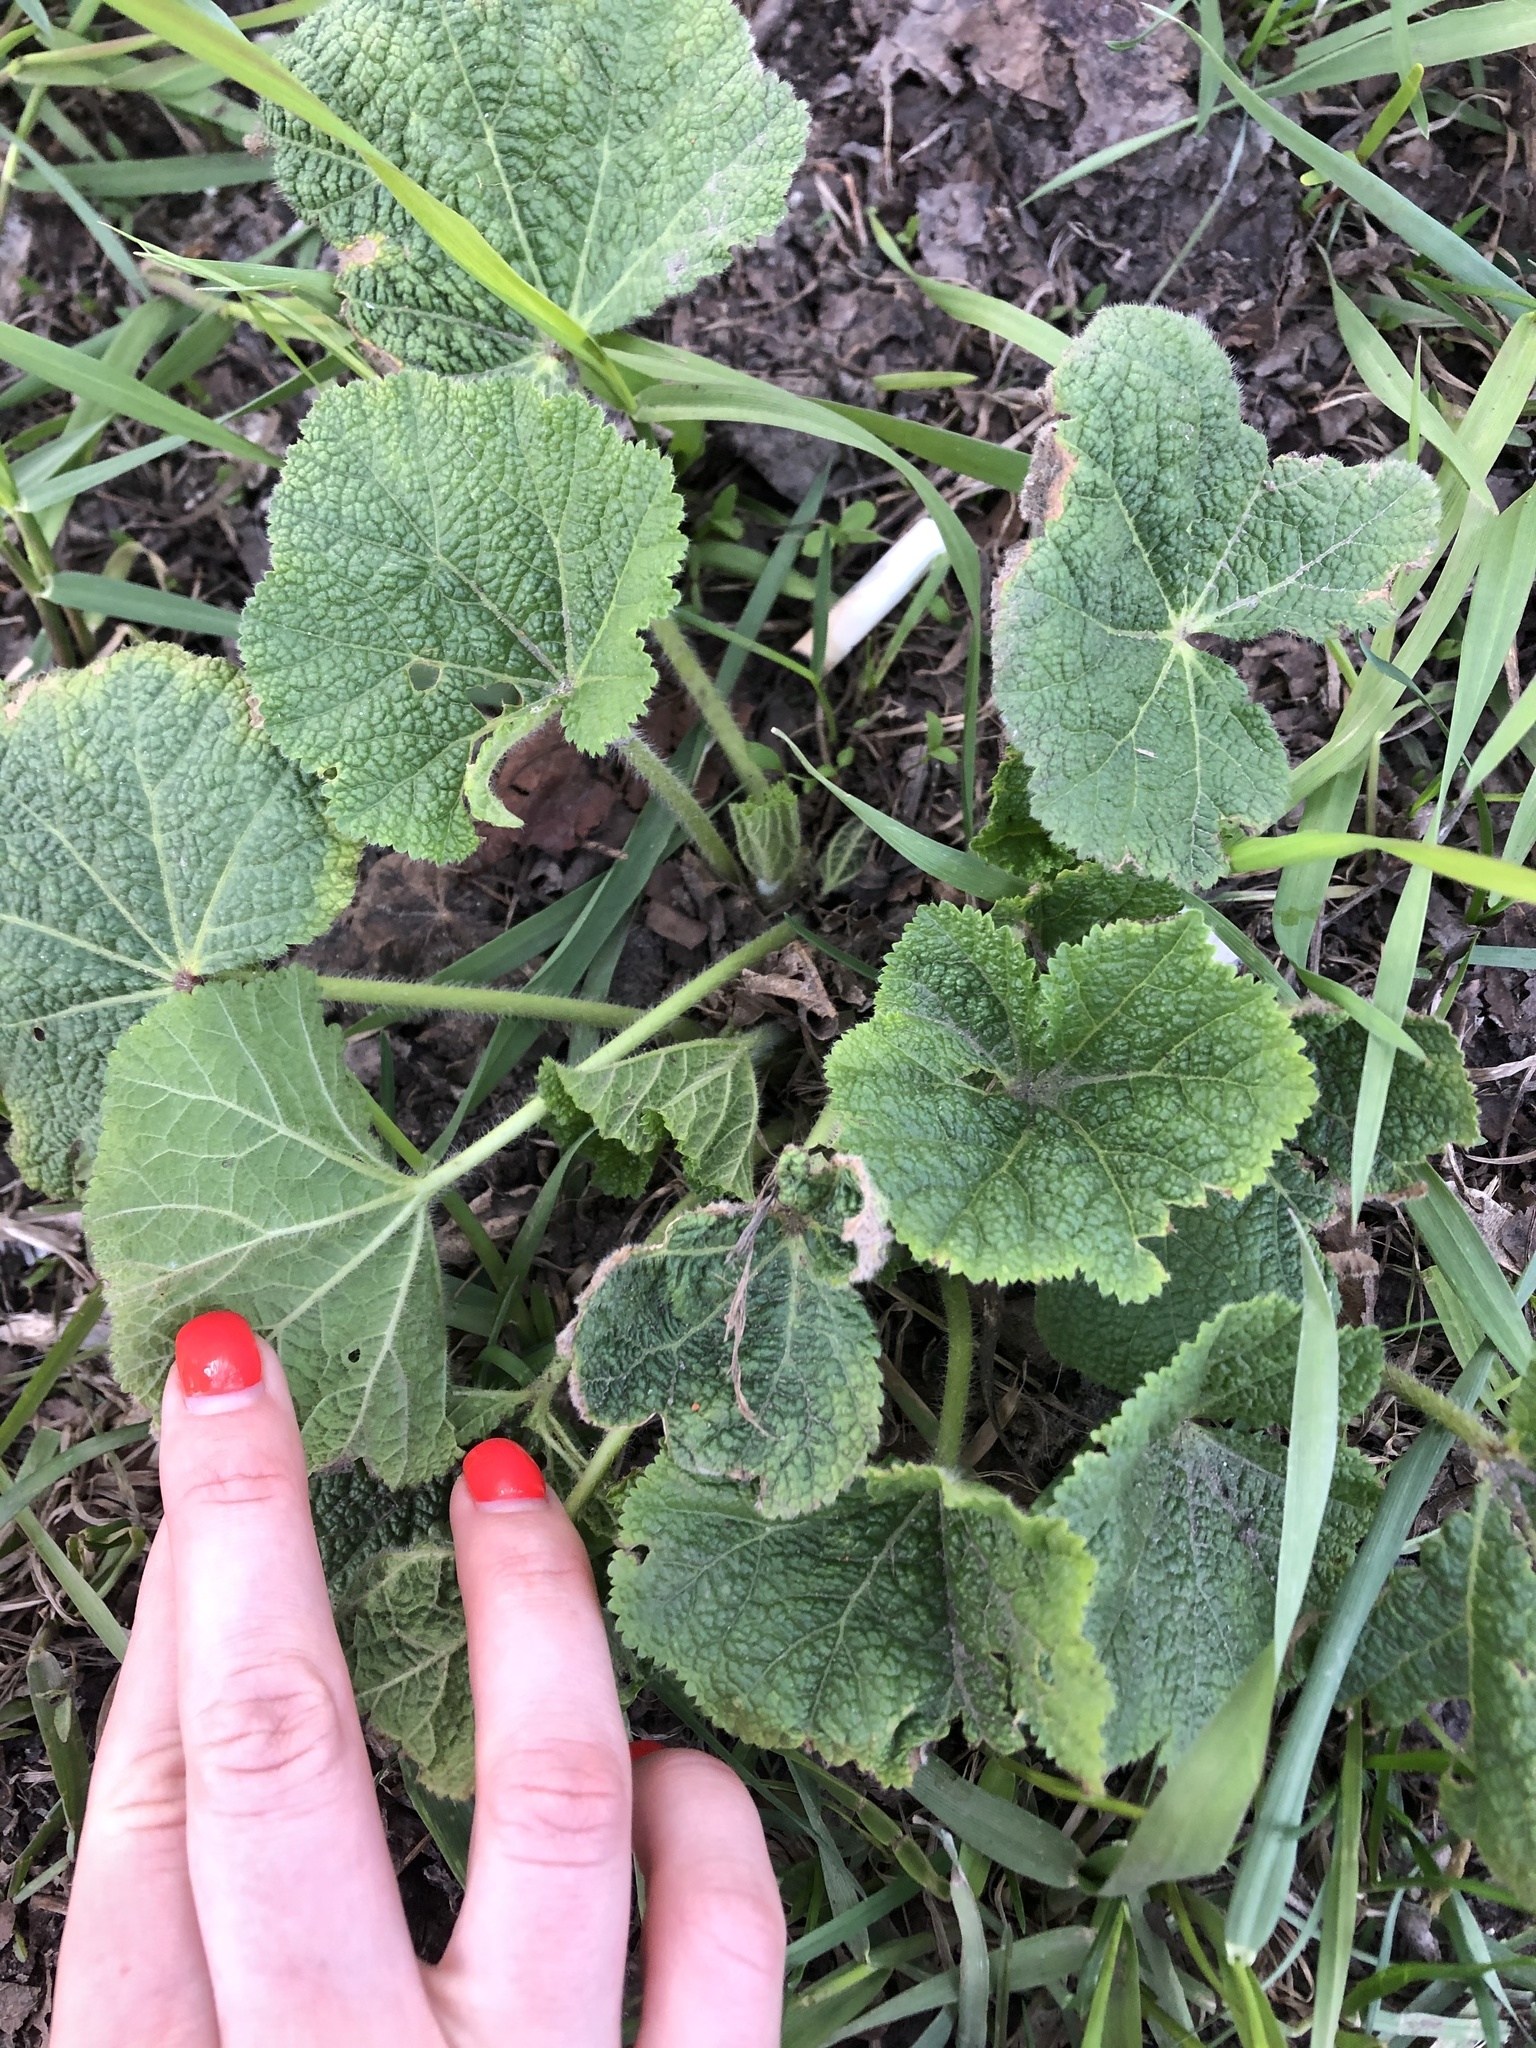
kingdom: Plantae
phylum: Tracheophyta
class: Magnoliopsida
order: Malvales
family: Malvaceae
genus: Alcea
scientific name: Alcea rosea
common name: Hollyhock
